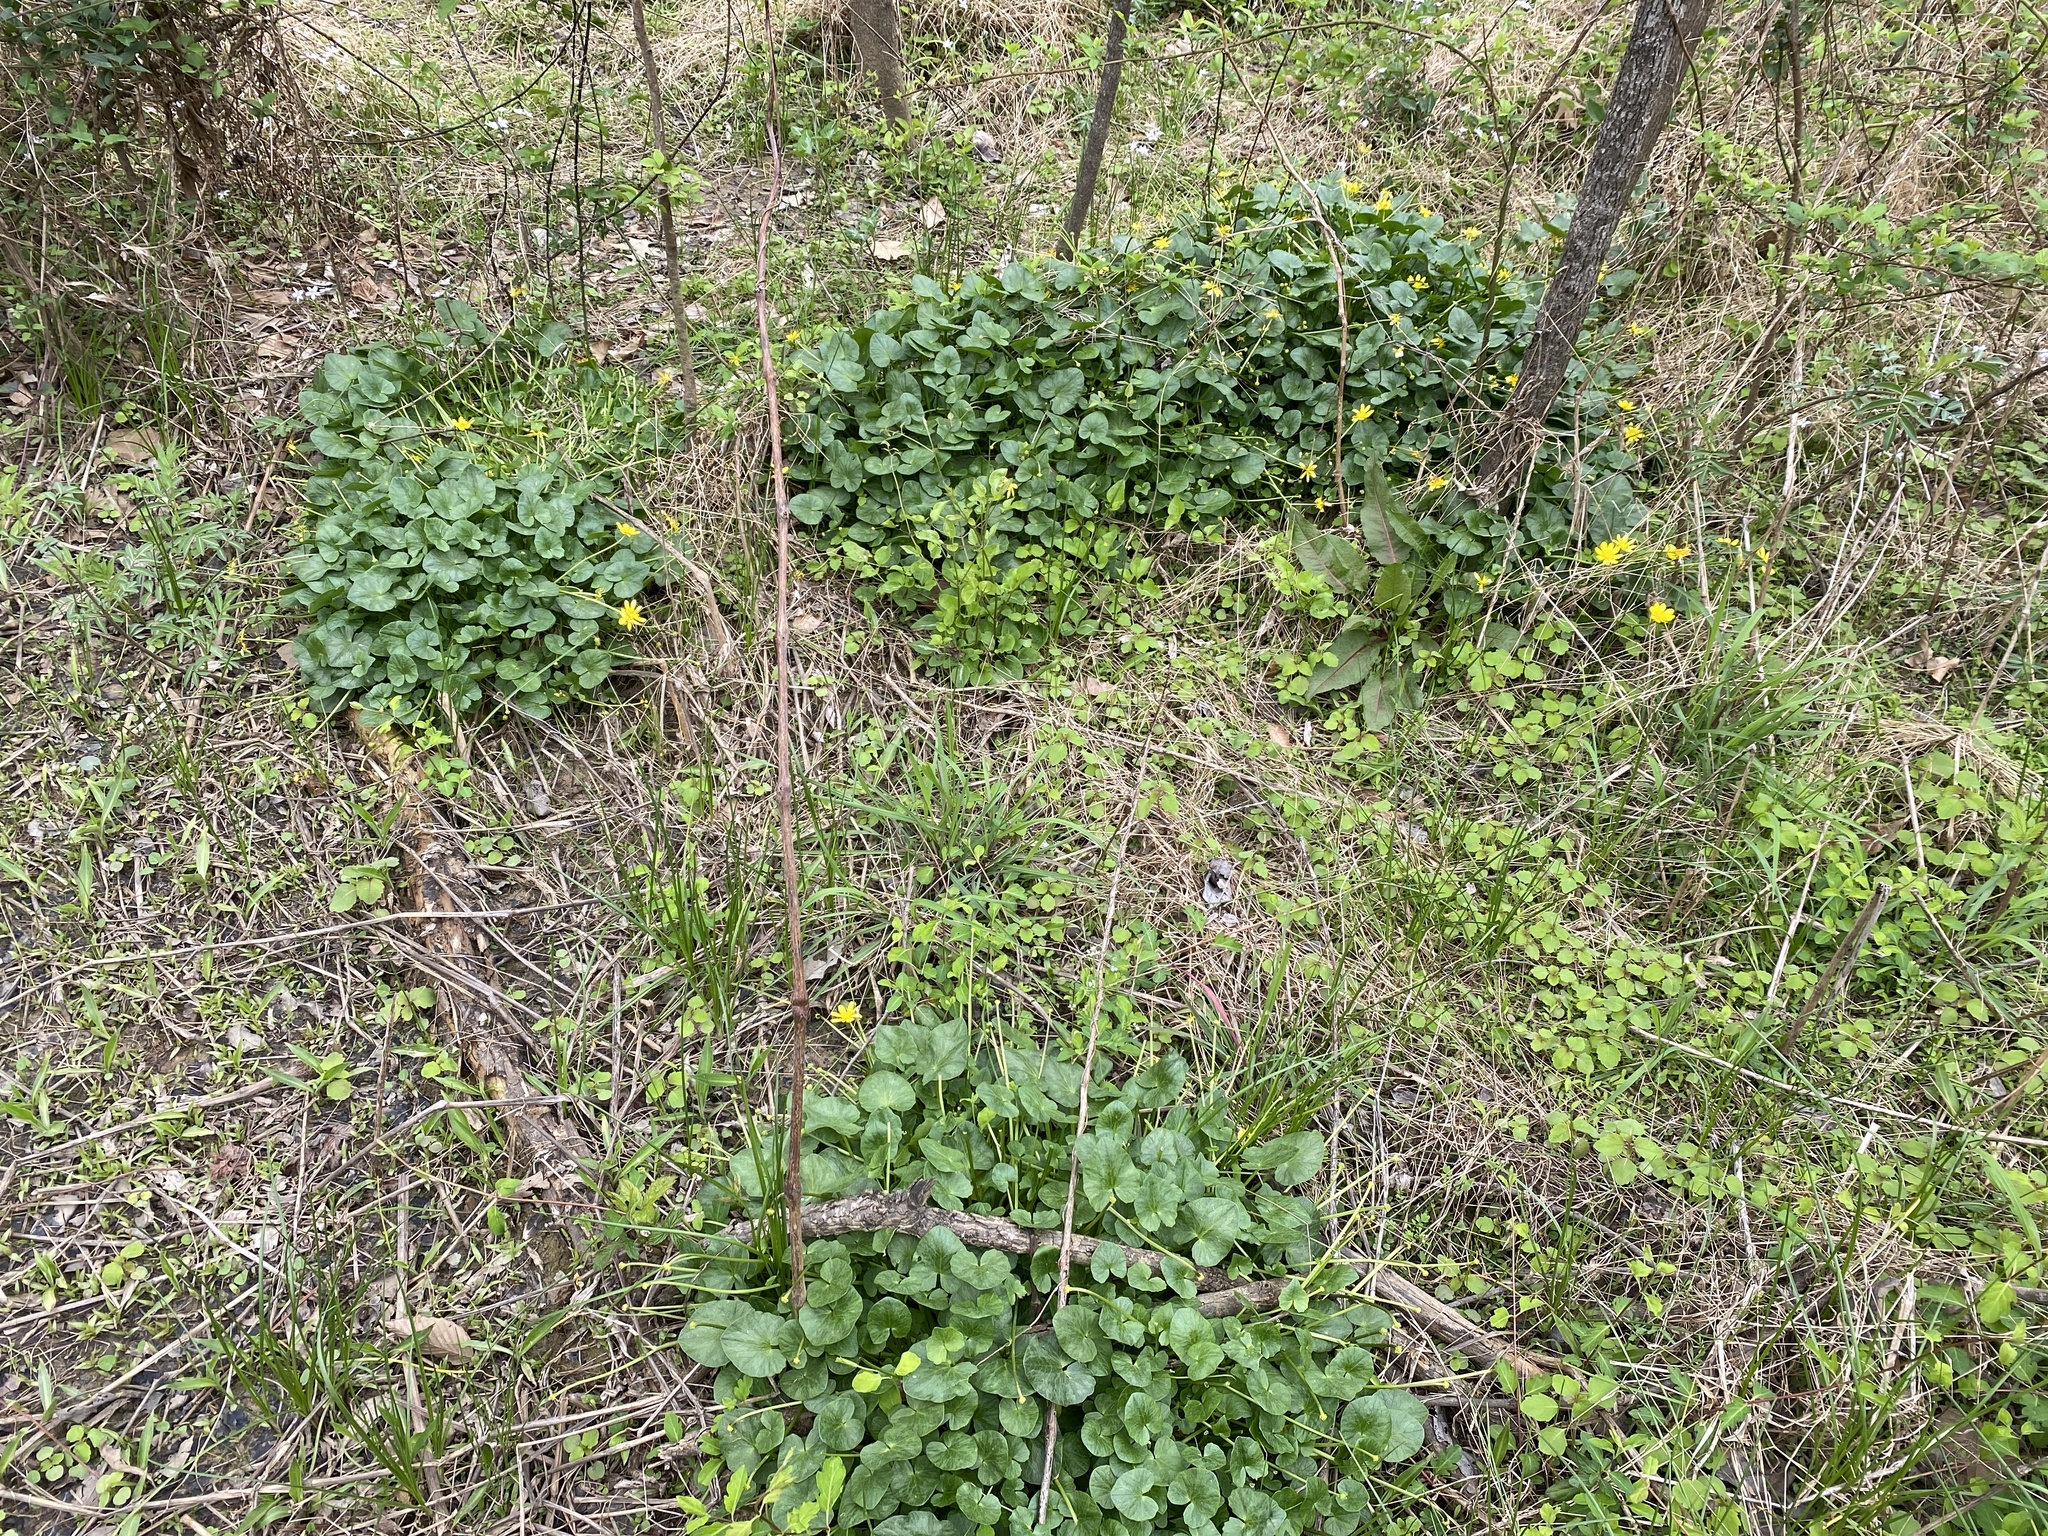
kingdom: Plantae
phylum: Tracheophyta
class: Magnoliopsida
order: Ranunculales
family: Ranunculaceae
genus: Ficaria
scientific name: Ficaria verna
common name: Lesser celandine
